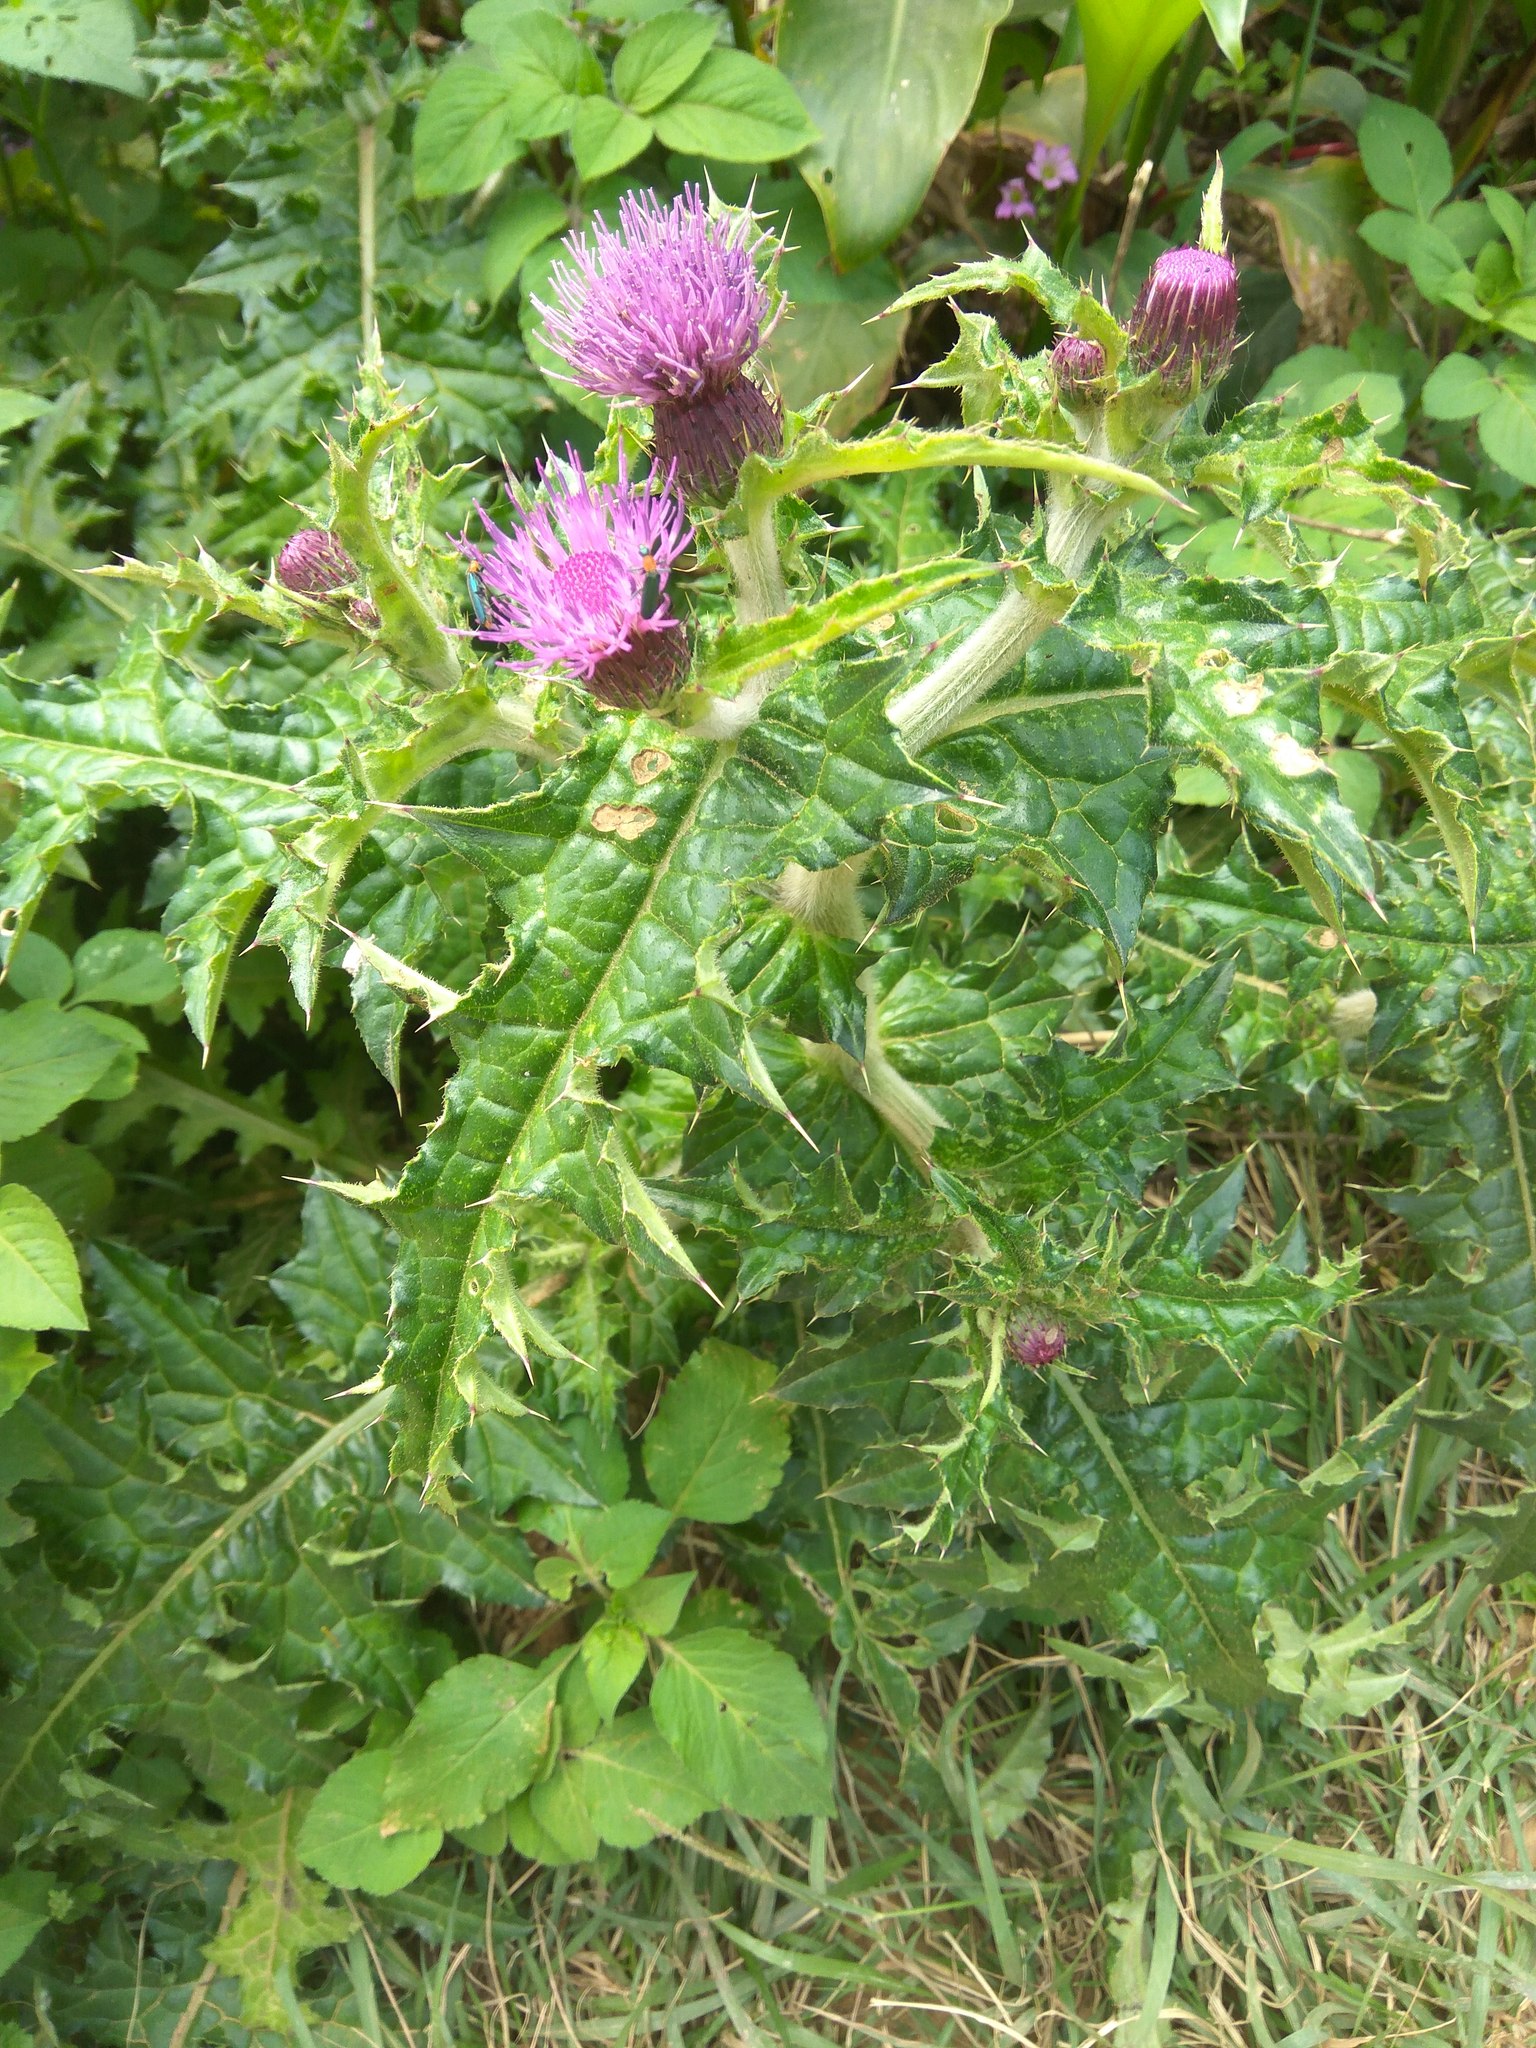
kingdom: Plantae
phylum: Tracheophyta
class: Magnoliopsida
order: Asterales
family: Asteraceae
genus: Cirsium
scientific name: Cirsium japonicum
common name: Japanese thistle
